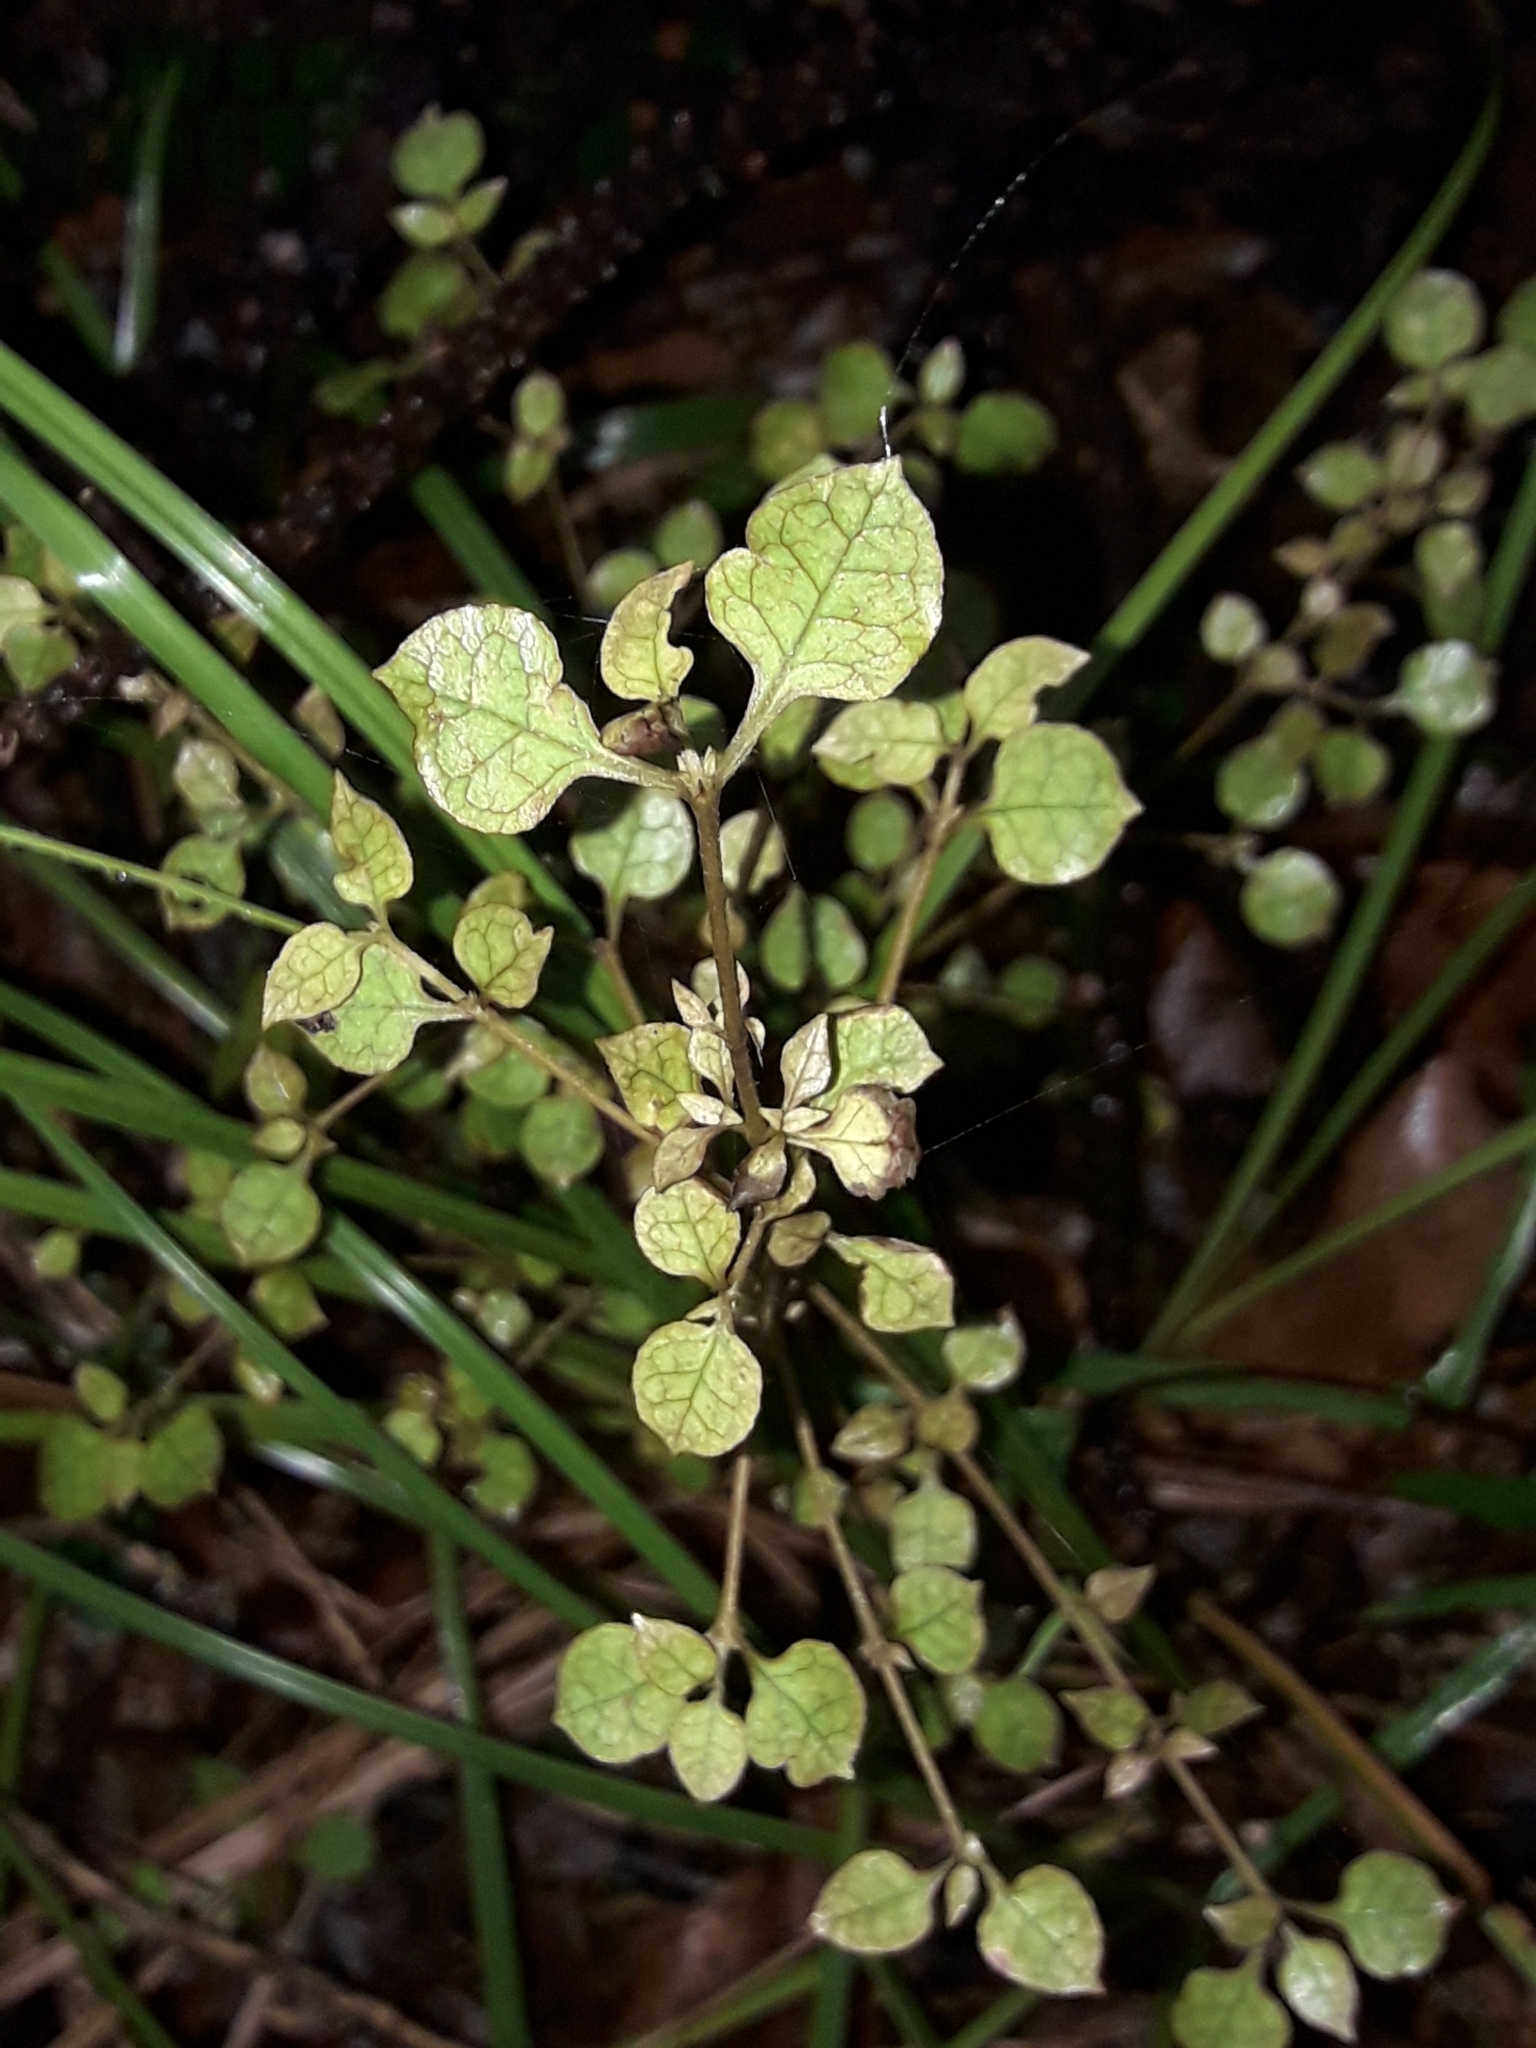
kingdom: Plantae
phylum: Tracheophyta
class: Magnoliopsida
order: Gentianales
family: Rubiaceae
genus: Coprosma
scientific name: Coprosma areolata
